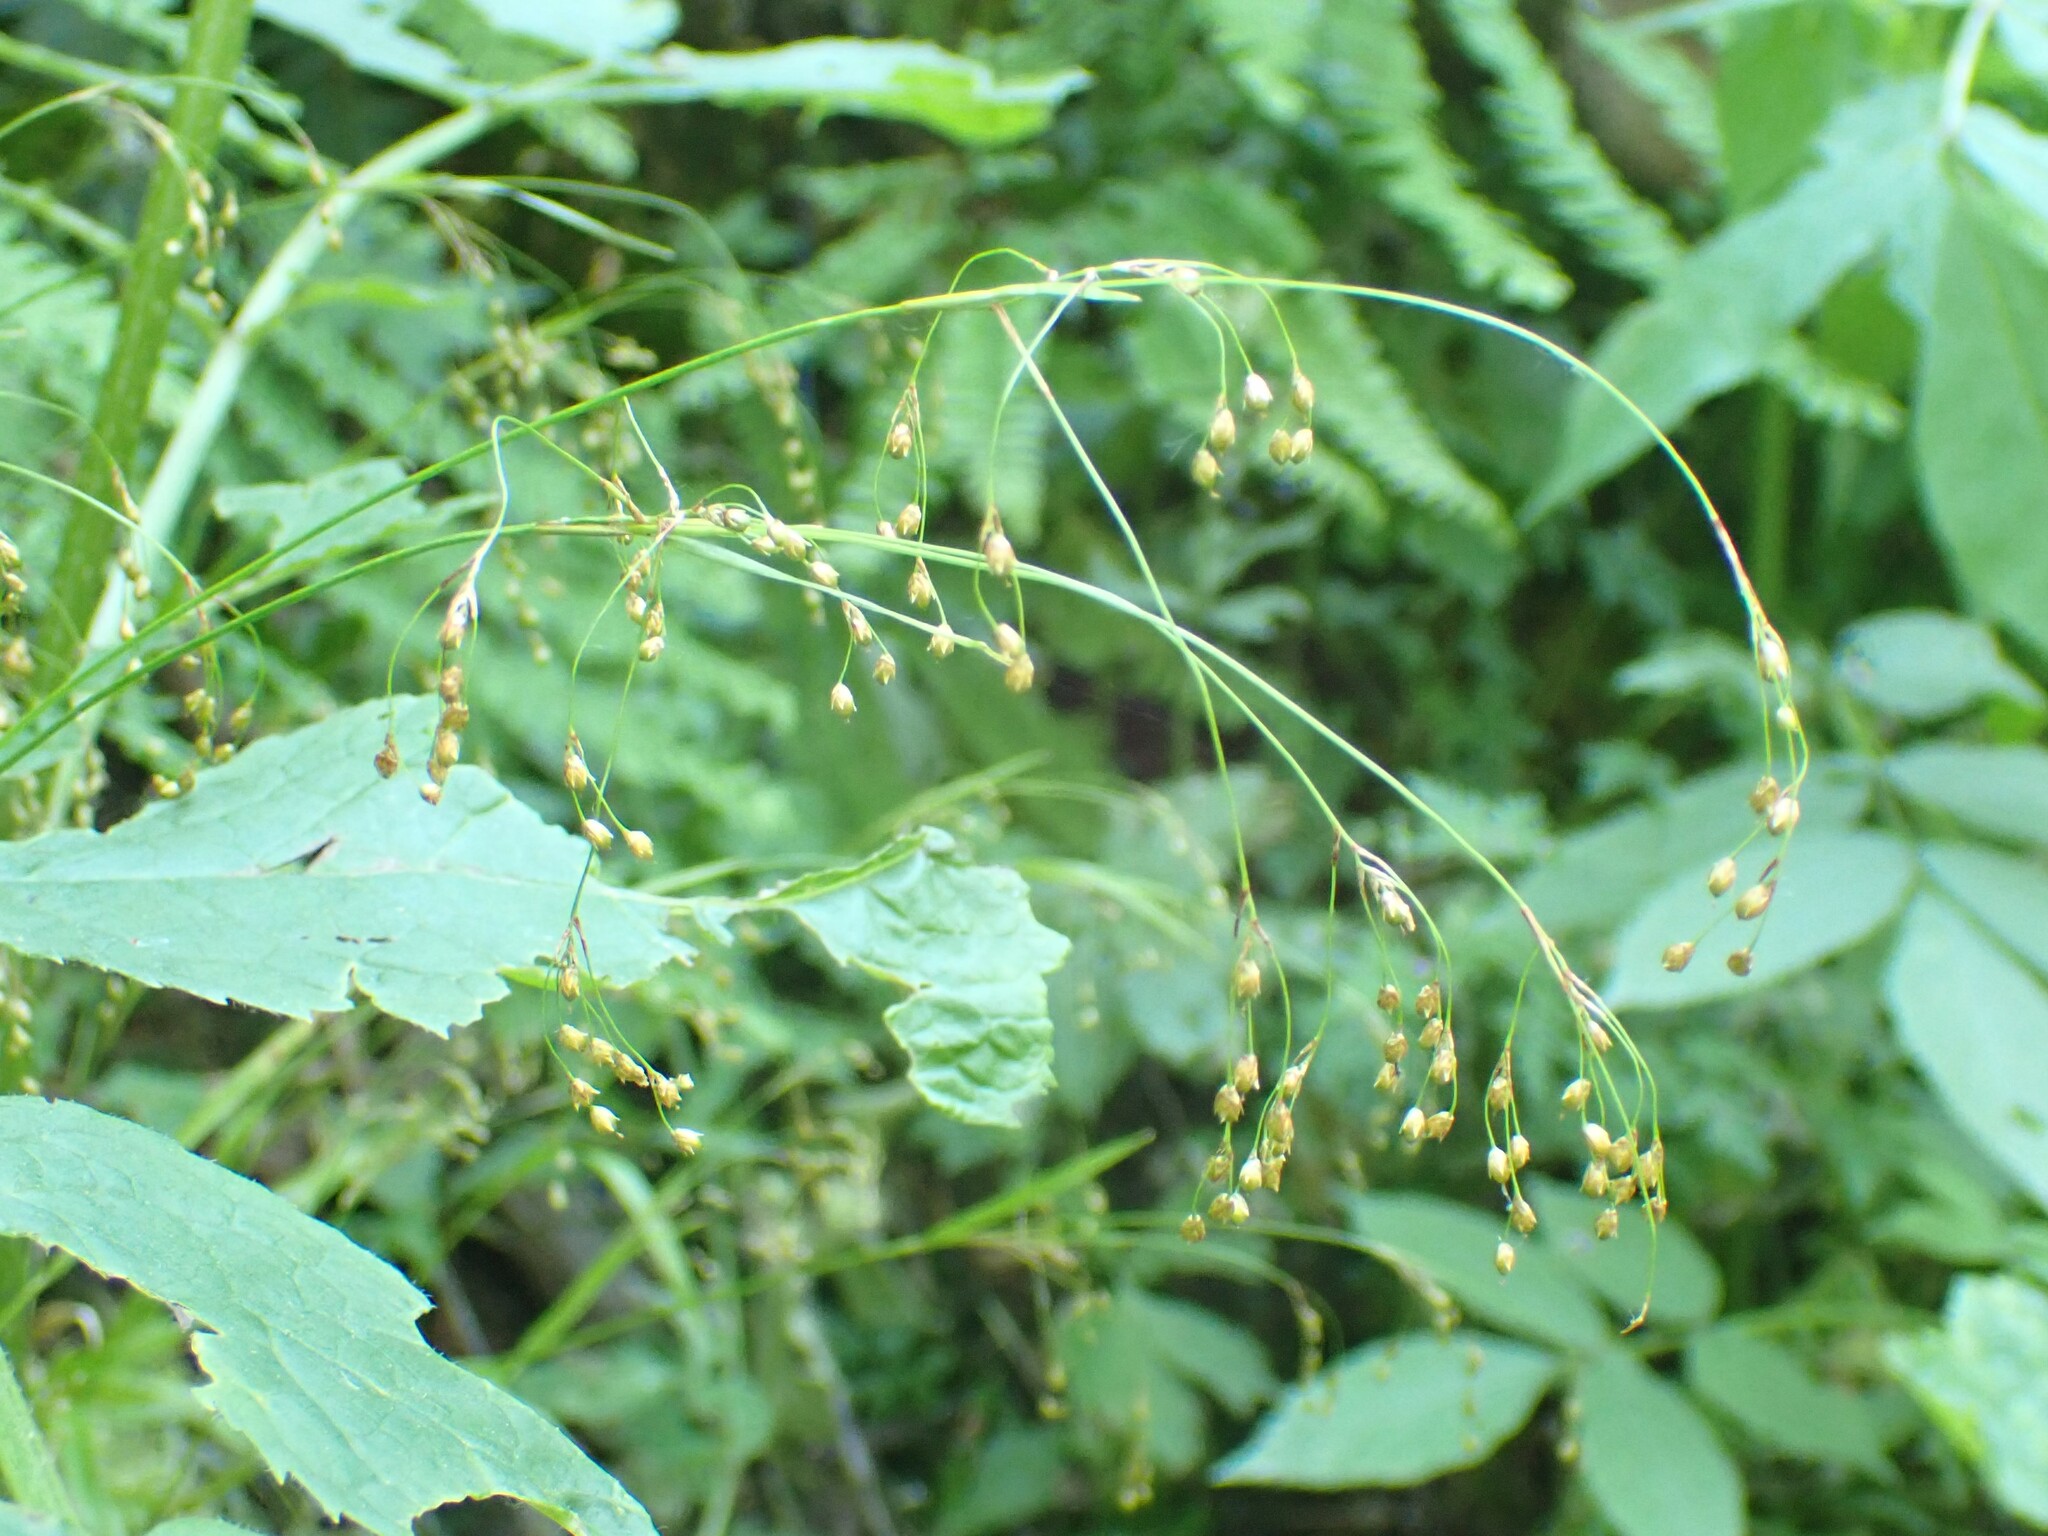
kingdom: Plantae
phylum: Tracheophyta
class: Liliopsida
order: Poales
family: Juncaceae
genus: Luzula
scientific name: Luzula parviflora
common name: Millet woodrush
